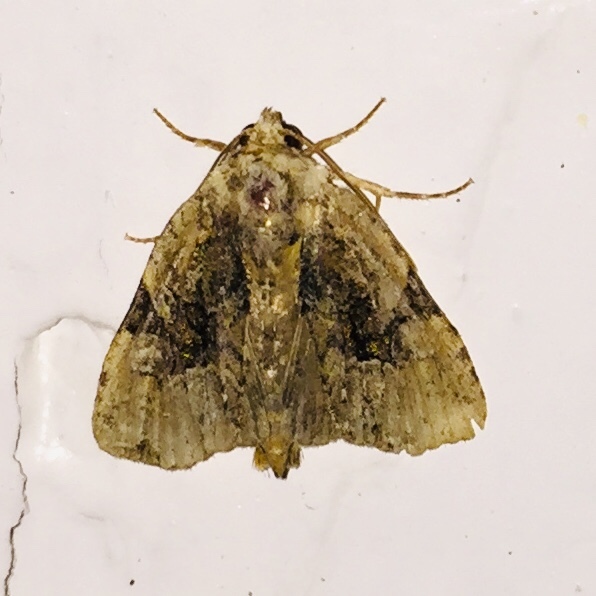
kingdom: Animalia
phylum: Arthropoda
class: Insecta
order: Lepidoptera
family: Noctuidae
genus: Oligia
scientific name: Oligia modica
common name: Black-banded brocade
